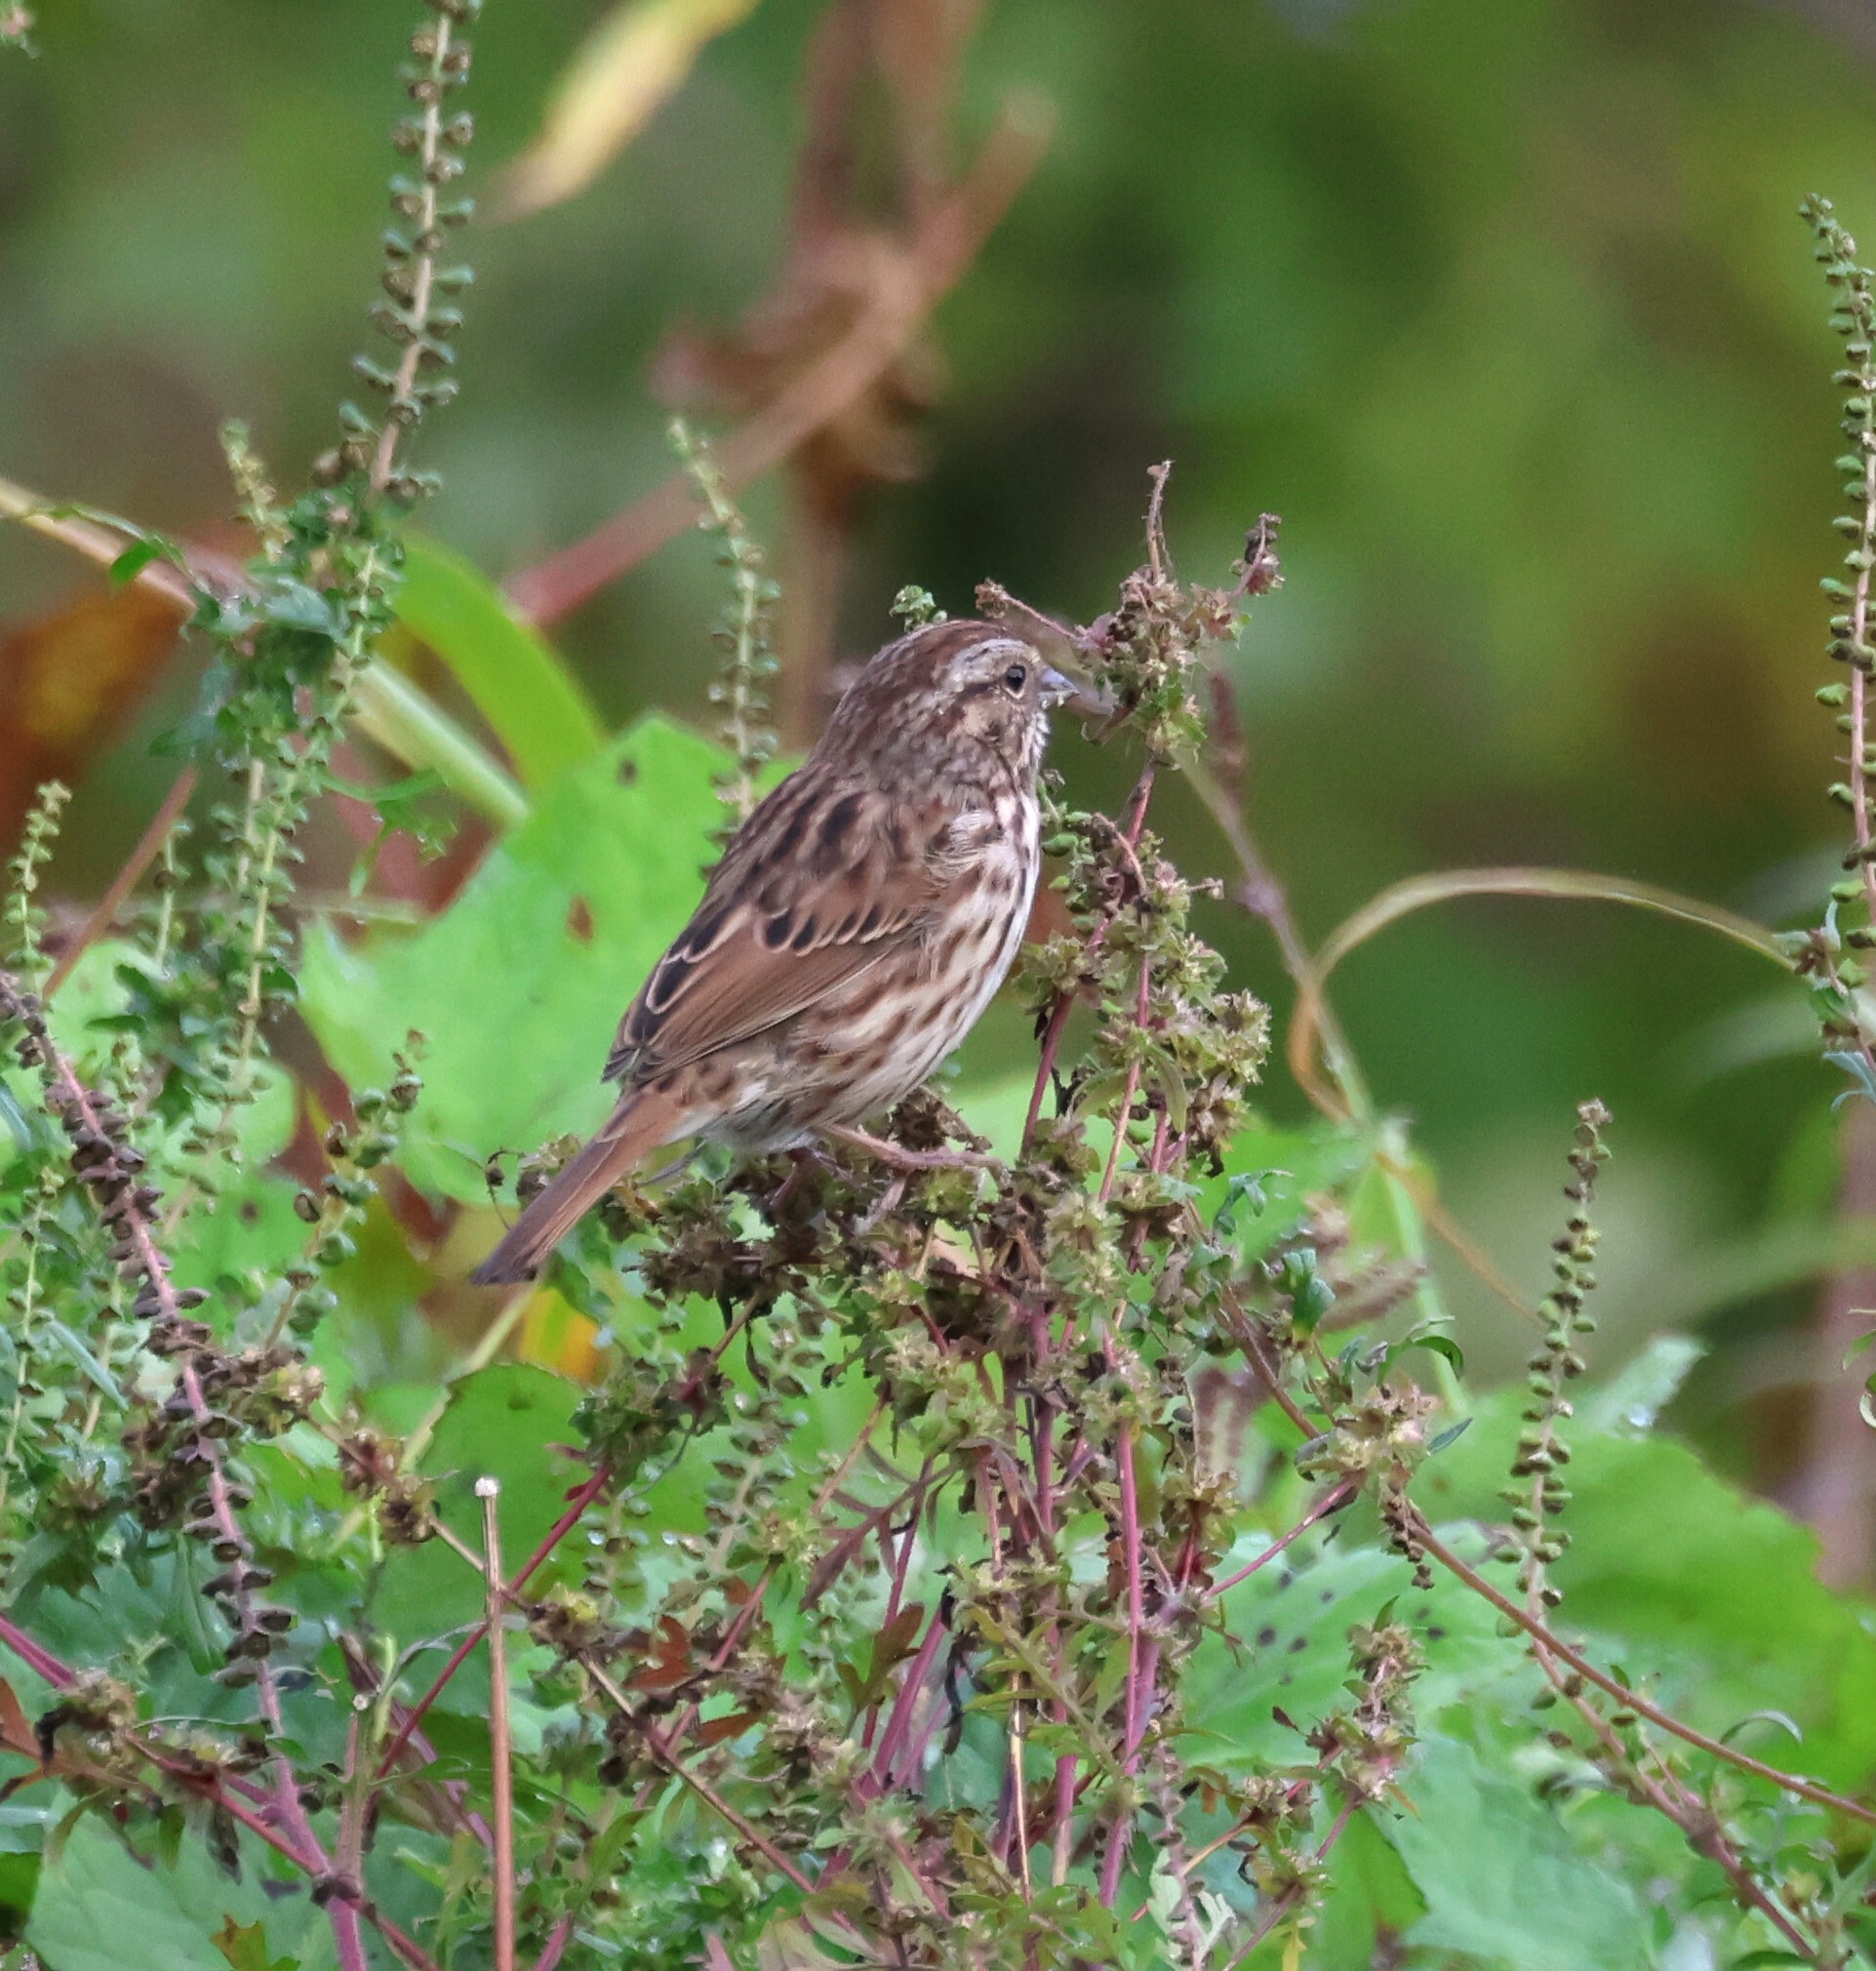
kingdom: Animalia
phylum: Chordata
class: Aves
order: Passeriformes
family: Passerellidae
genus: Melospiza
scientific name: Melospiza melodia
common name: Song sparrow
